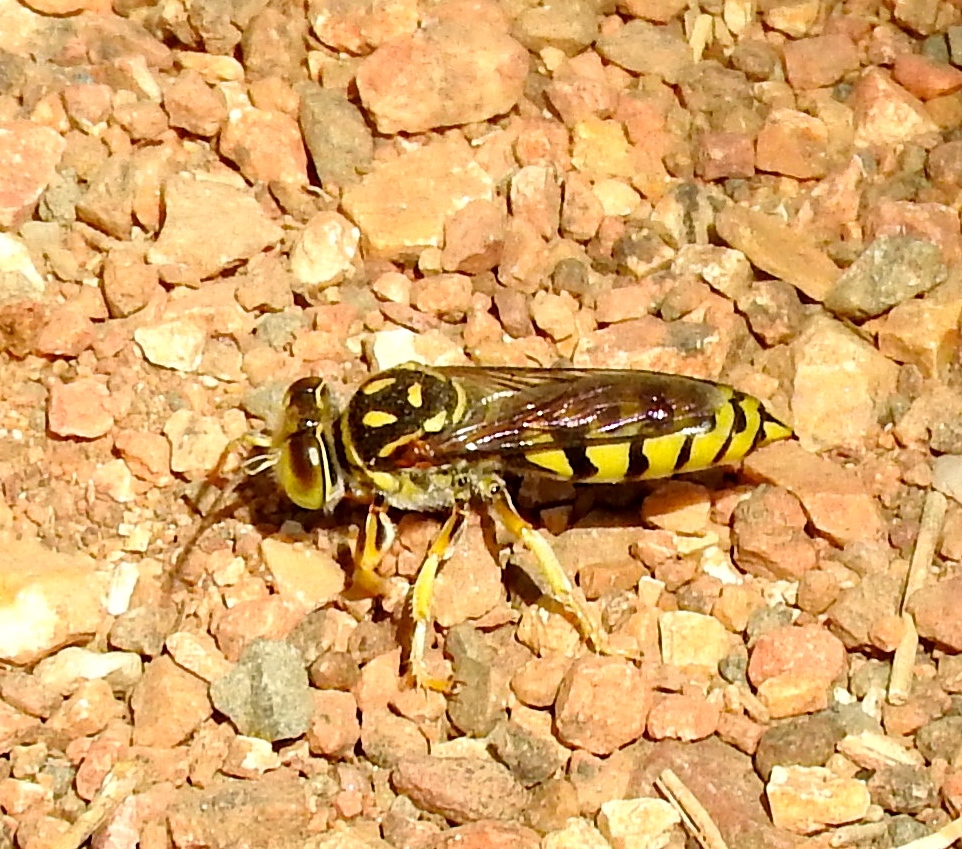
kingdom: Animalia
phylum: Arthropoda
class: Insecta
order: Hymenoptera
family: Crabronidae
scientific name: Crabronidae
